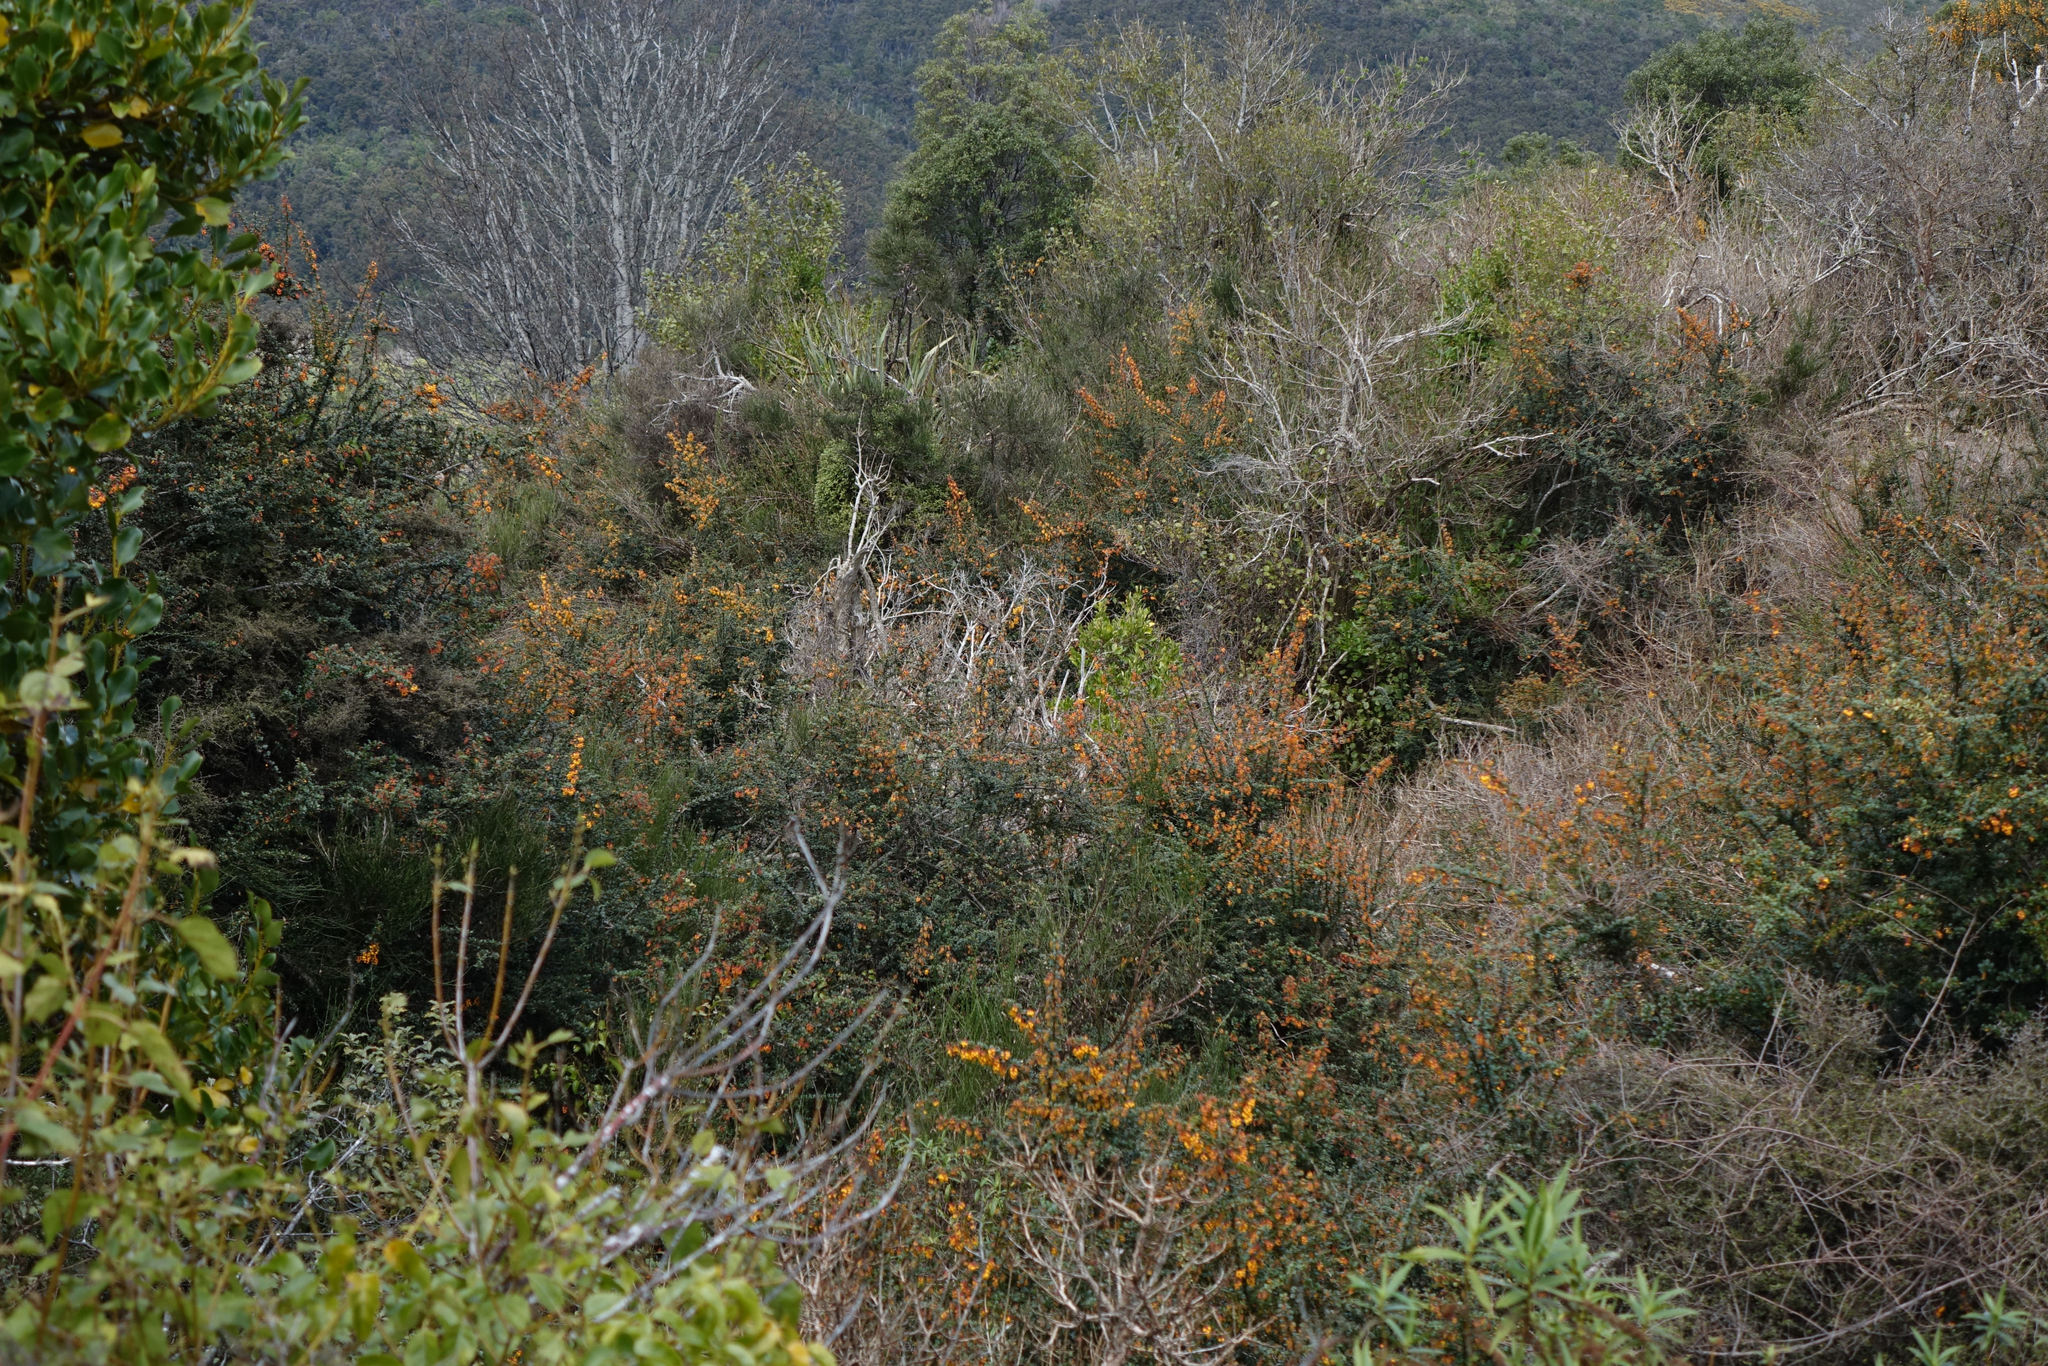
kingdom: Plantae
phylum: Tracheophyta
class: Magnoliopsida
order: Ranunculales
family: Berberidaceae
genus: Berberis
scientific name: Berberis darwinii
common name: Darwin's barberry
